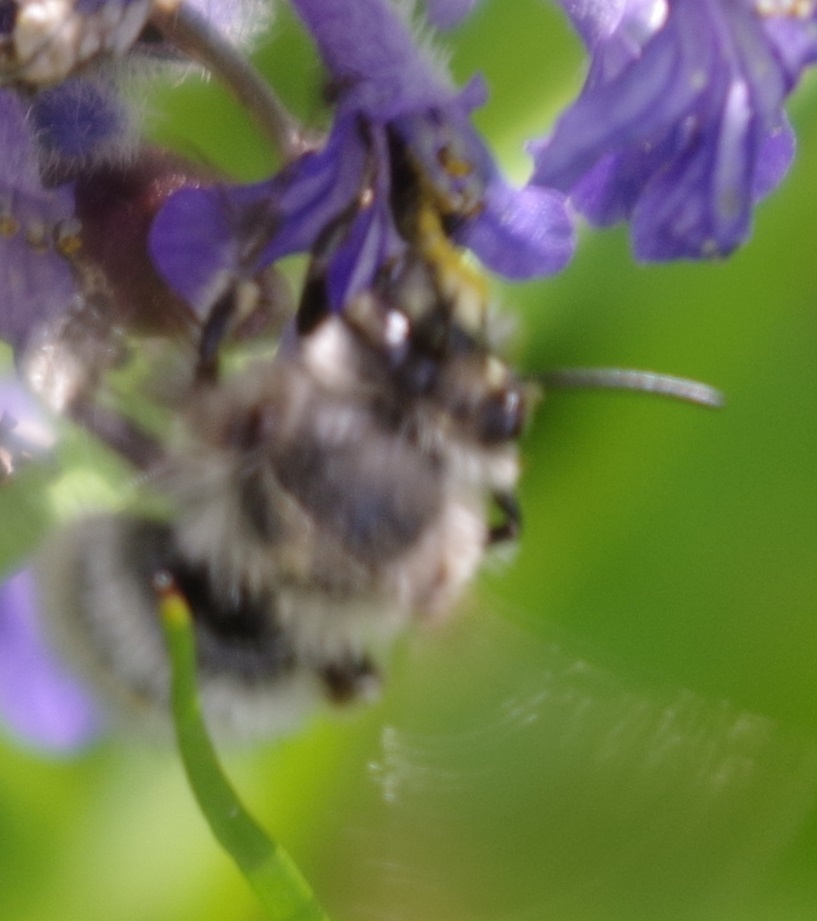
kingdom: Animalia
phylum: Arthropoda
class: Insecta
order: Hymenoptera
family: Apidae
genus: Anthophora
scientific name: Anthophora plumipes
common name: Hairy-footed flower bee
